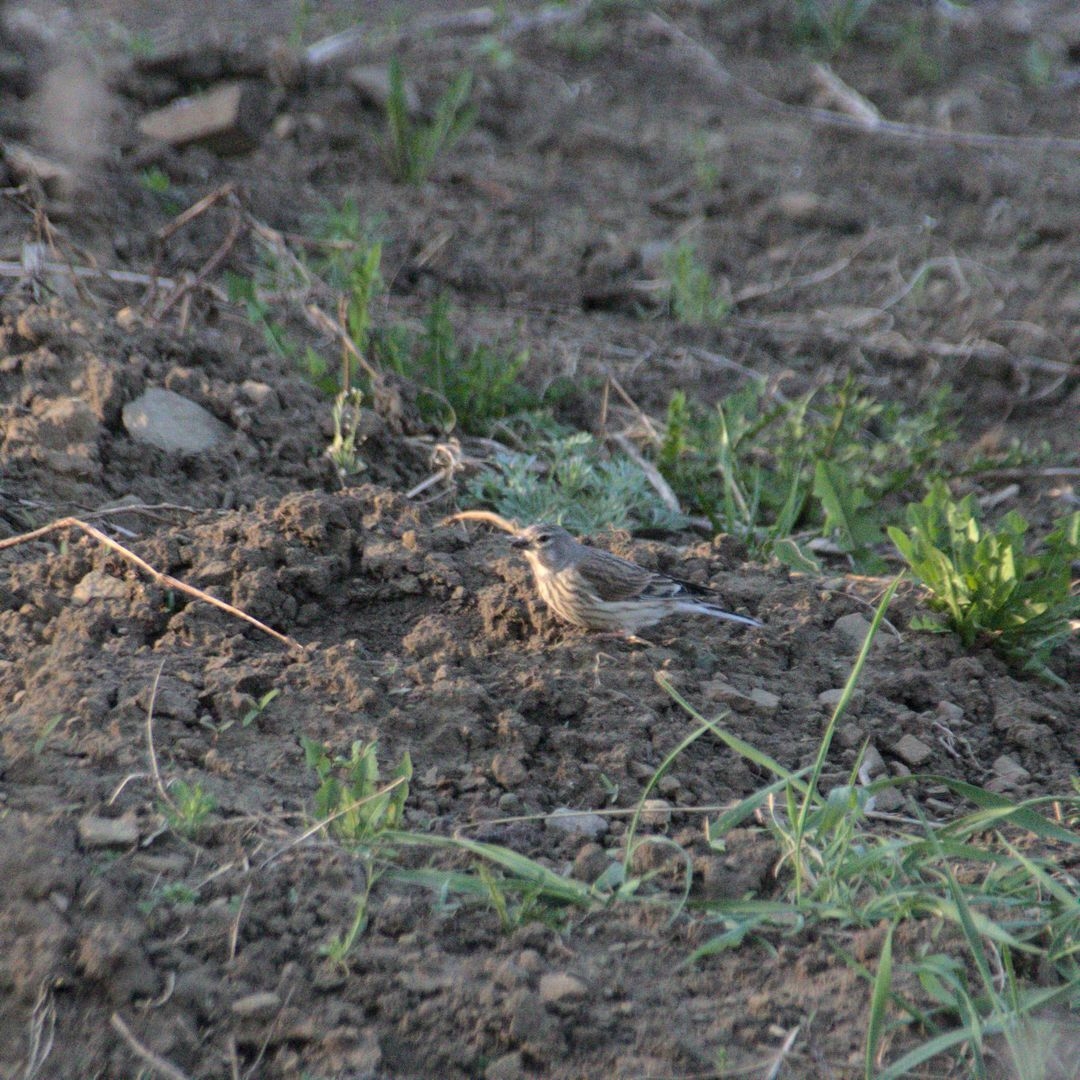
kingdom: Animalia
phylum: Chordata
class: Aves
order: Passeriformes
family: Fringillidae
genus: Linaria
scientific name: Linaria cannabina
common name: Common linnet
